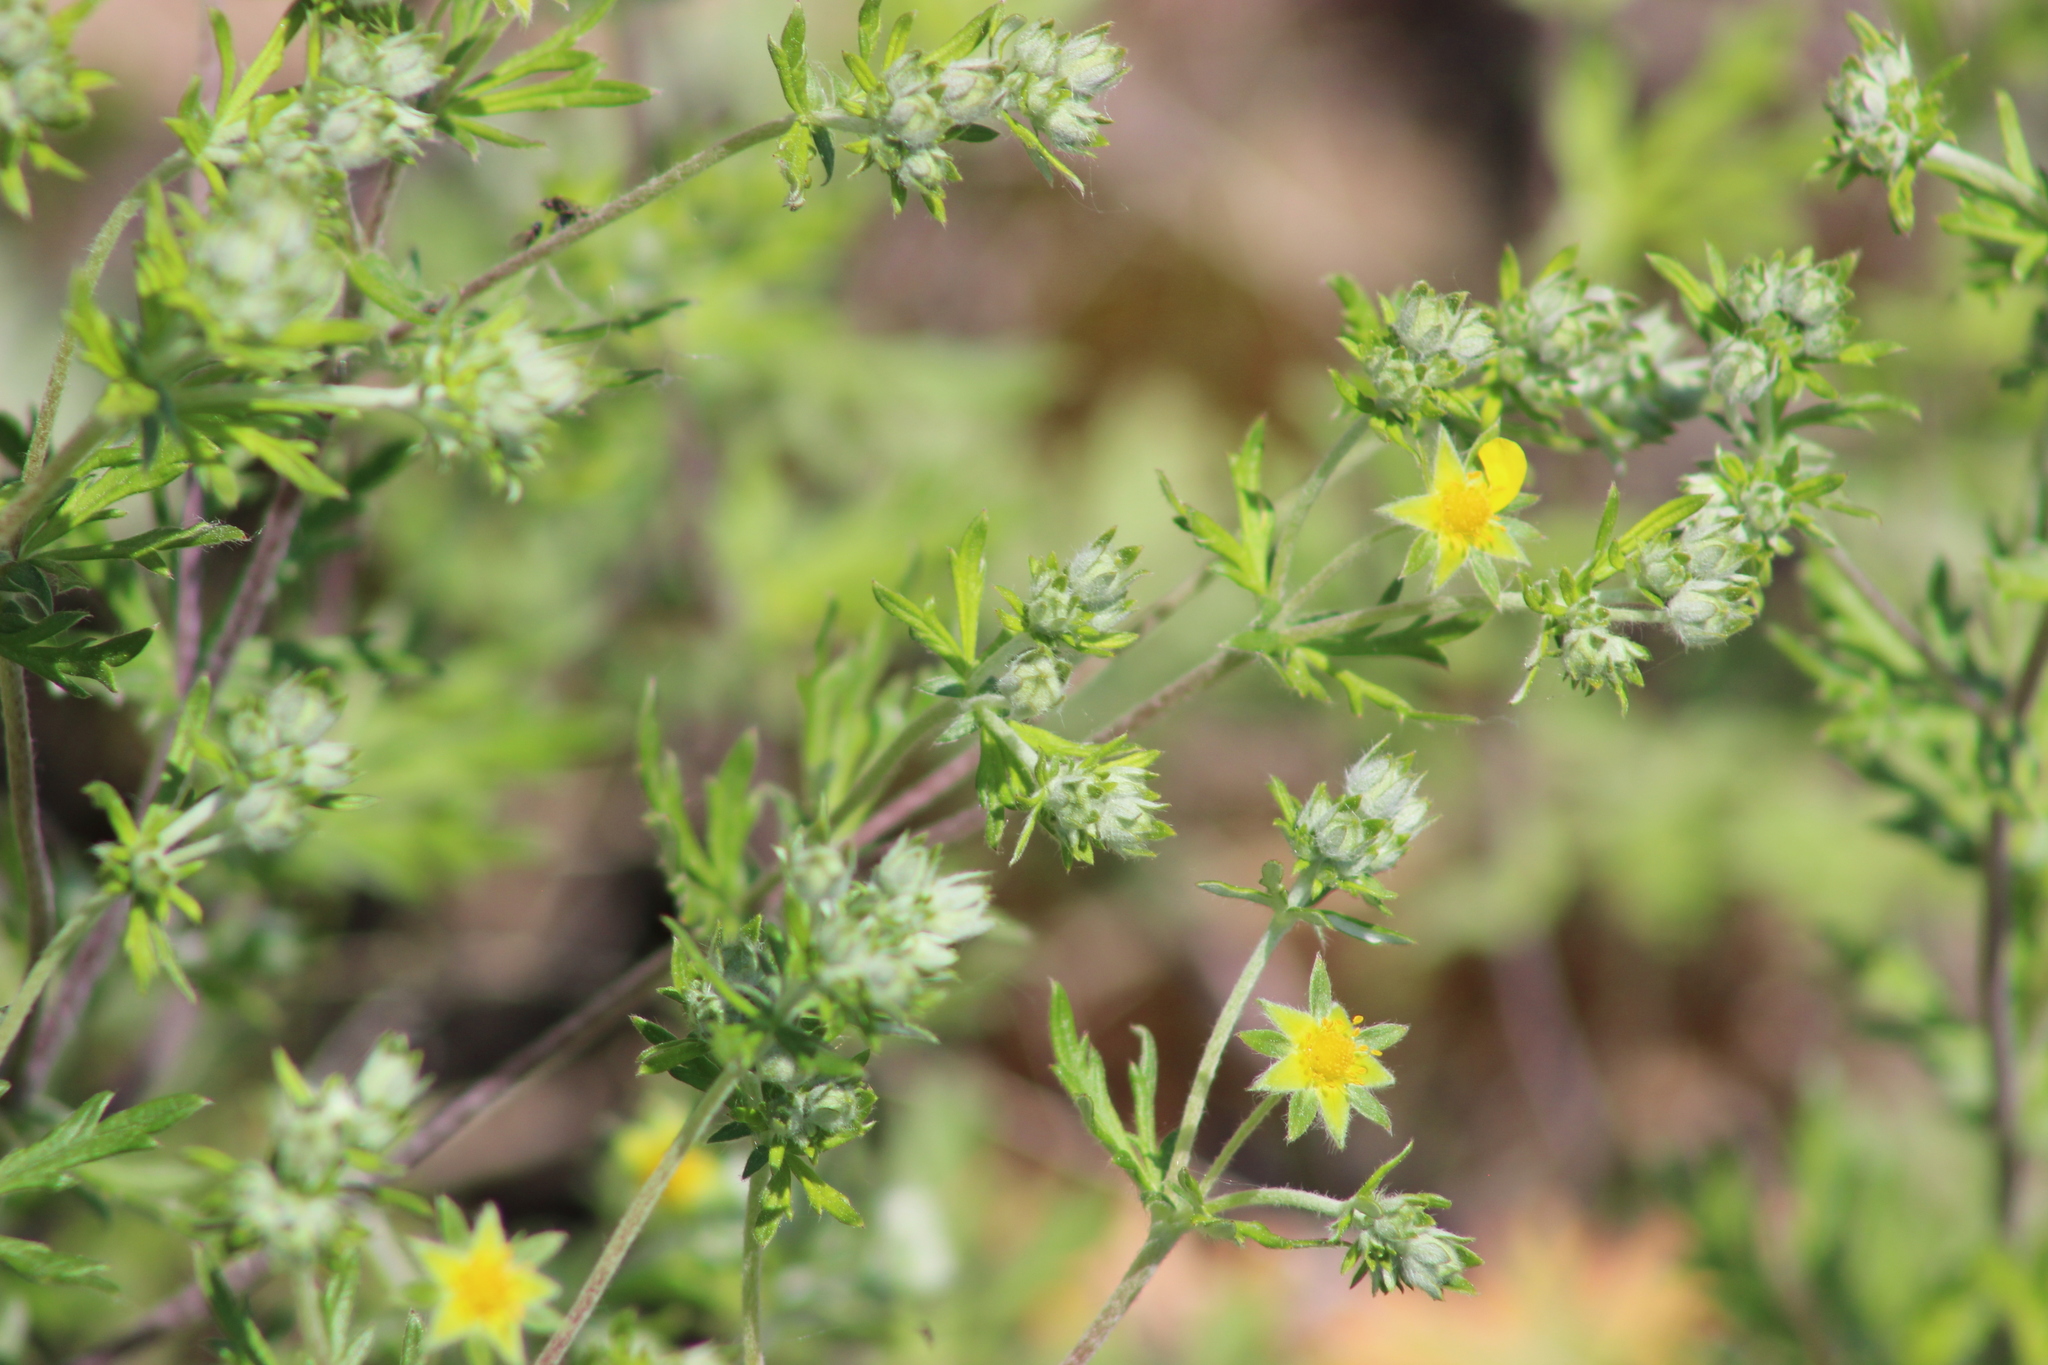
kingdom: Plantae
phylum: Tracheophyta
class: Magnoliopsida
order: Rosales
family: Rosaceae
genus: Potentilla
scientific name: Potentilla argentea
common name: Hoary cinquefoil
